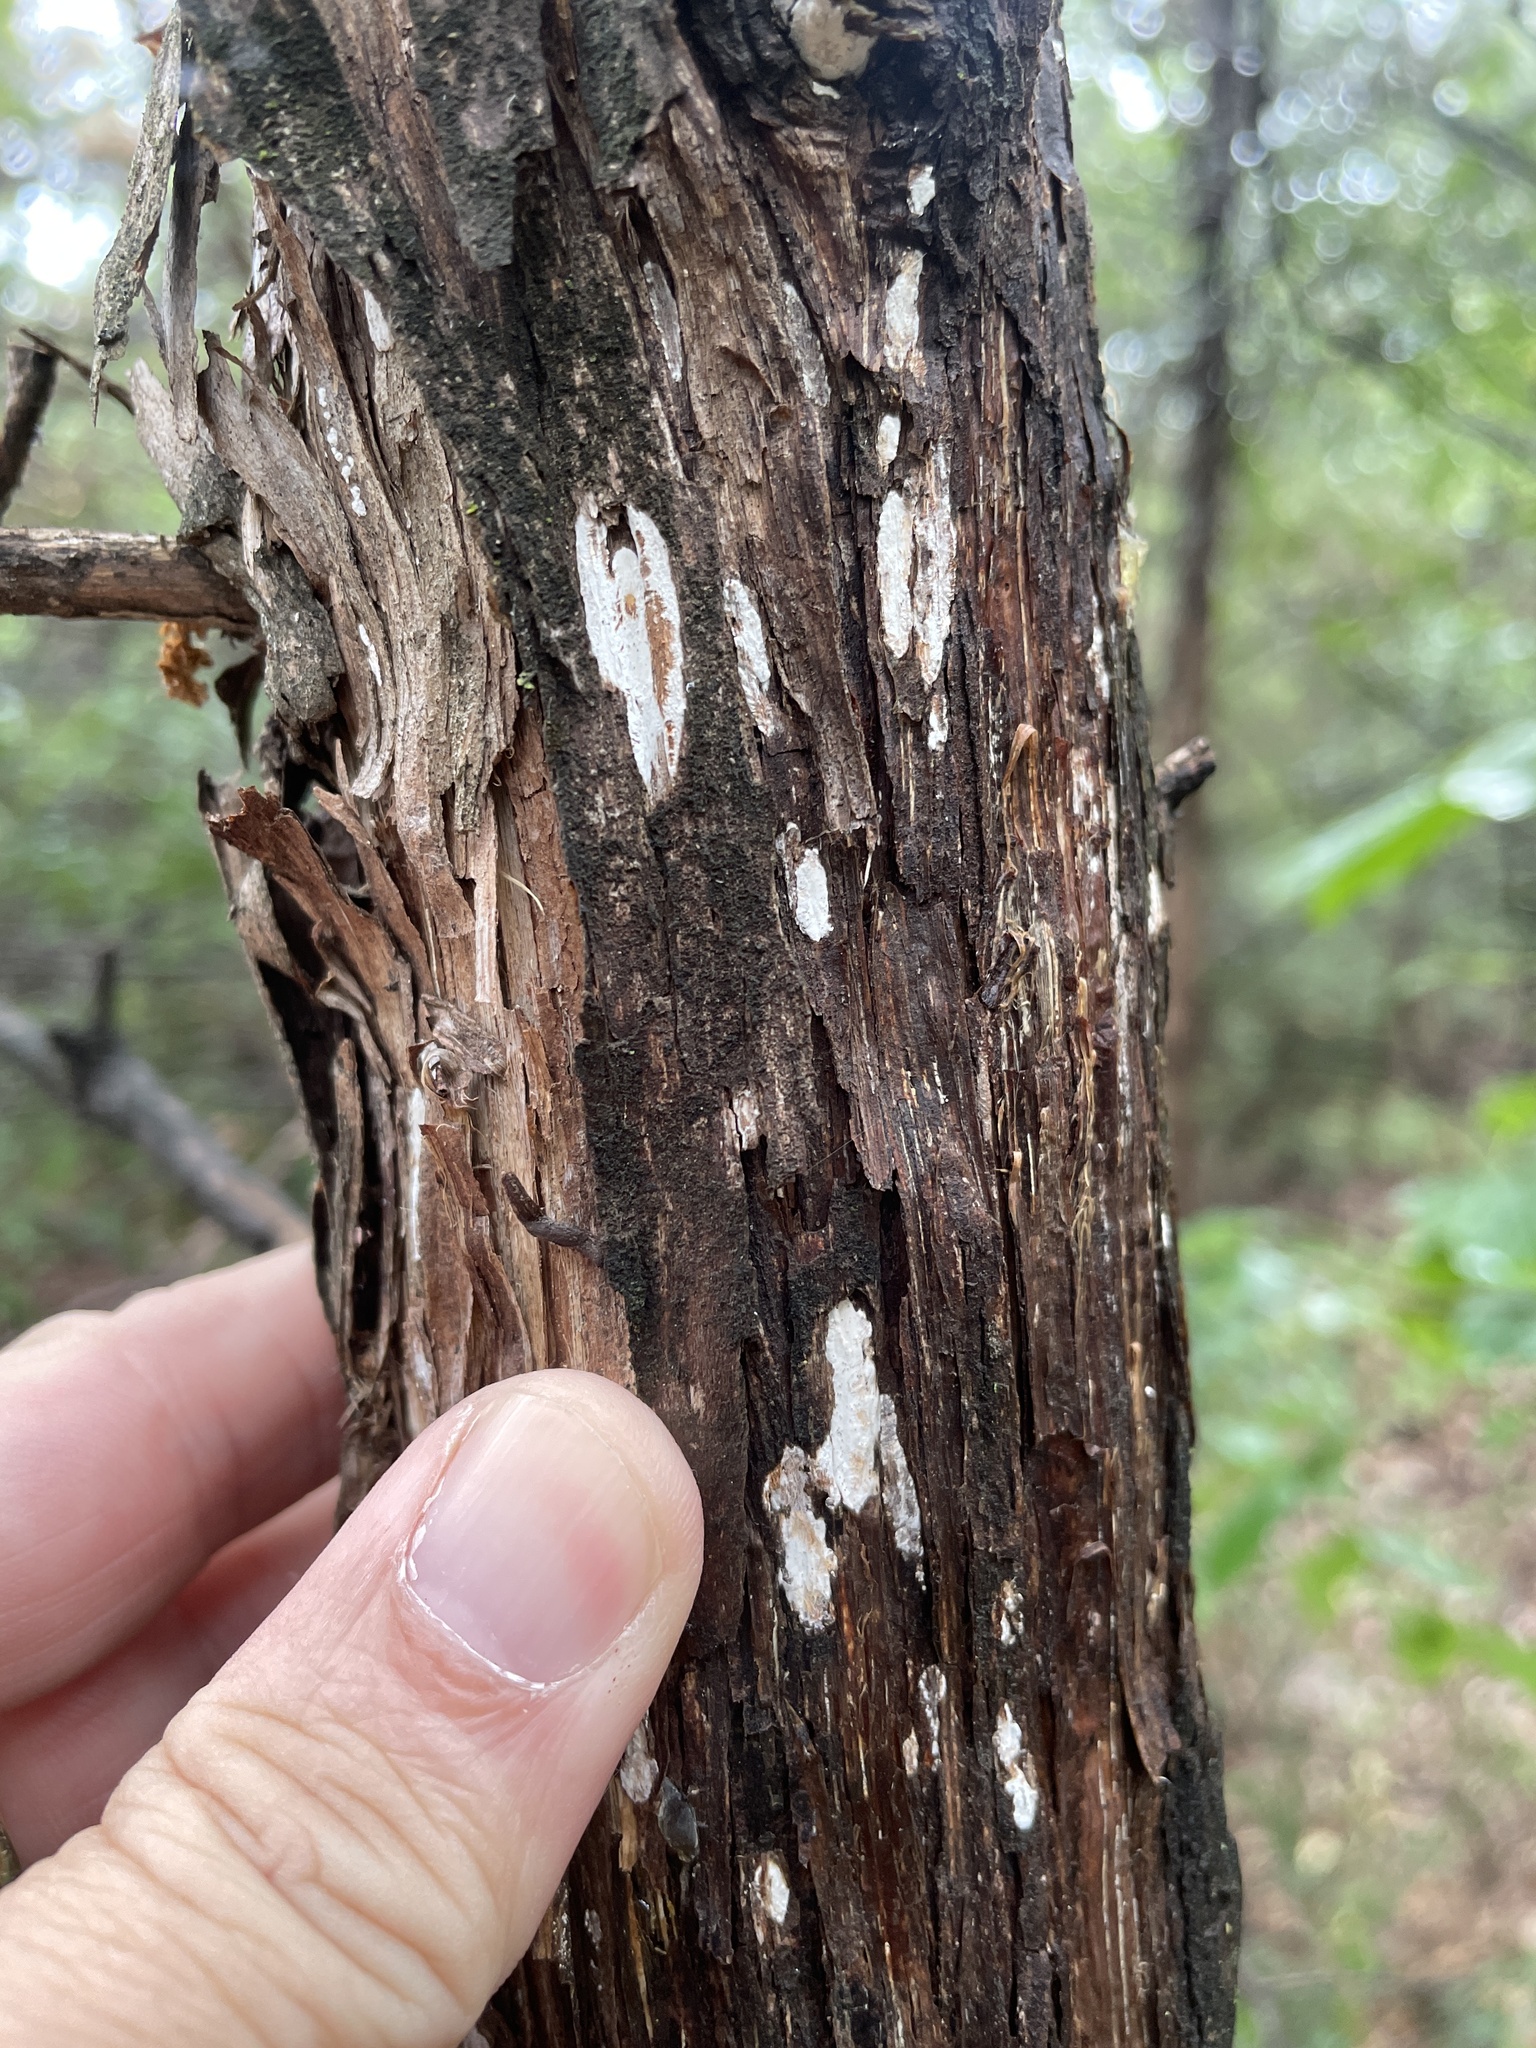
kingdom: Fungi
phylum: Basidiomycota
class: Agaricomycetes
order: Agaricales
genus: Dendrothele
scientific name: Dendrothele nivosa
